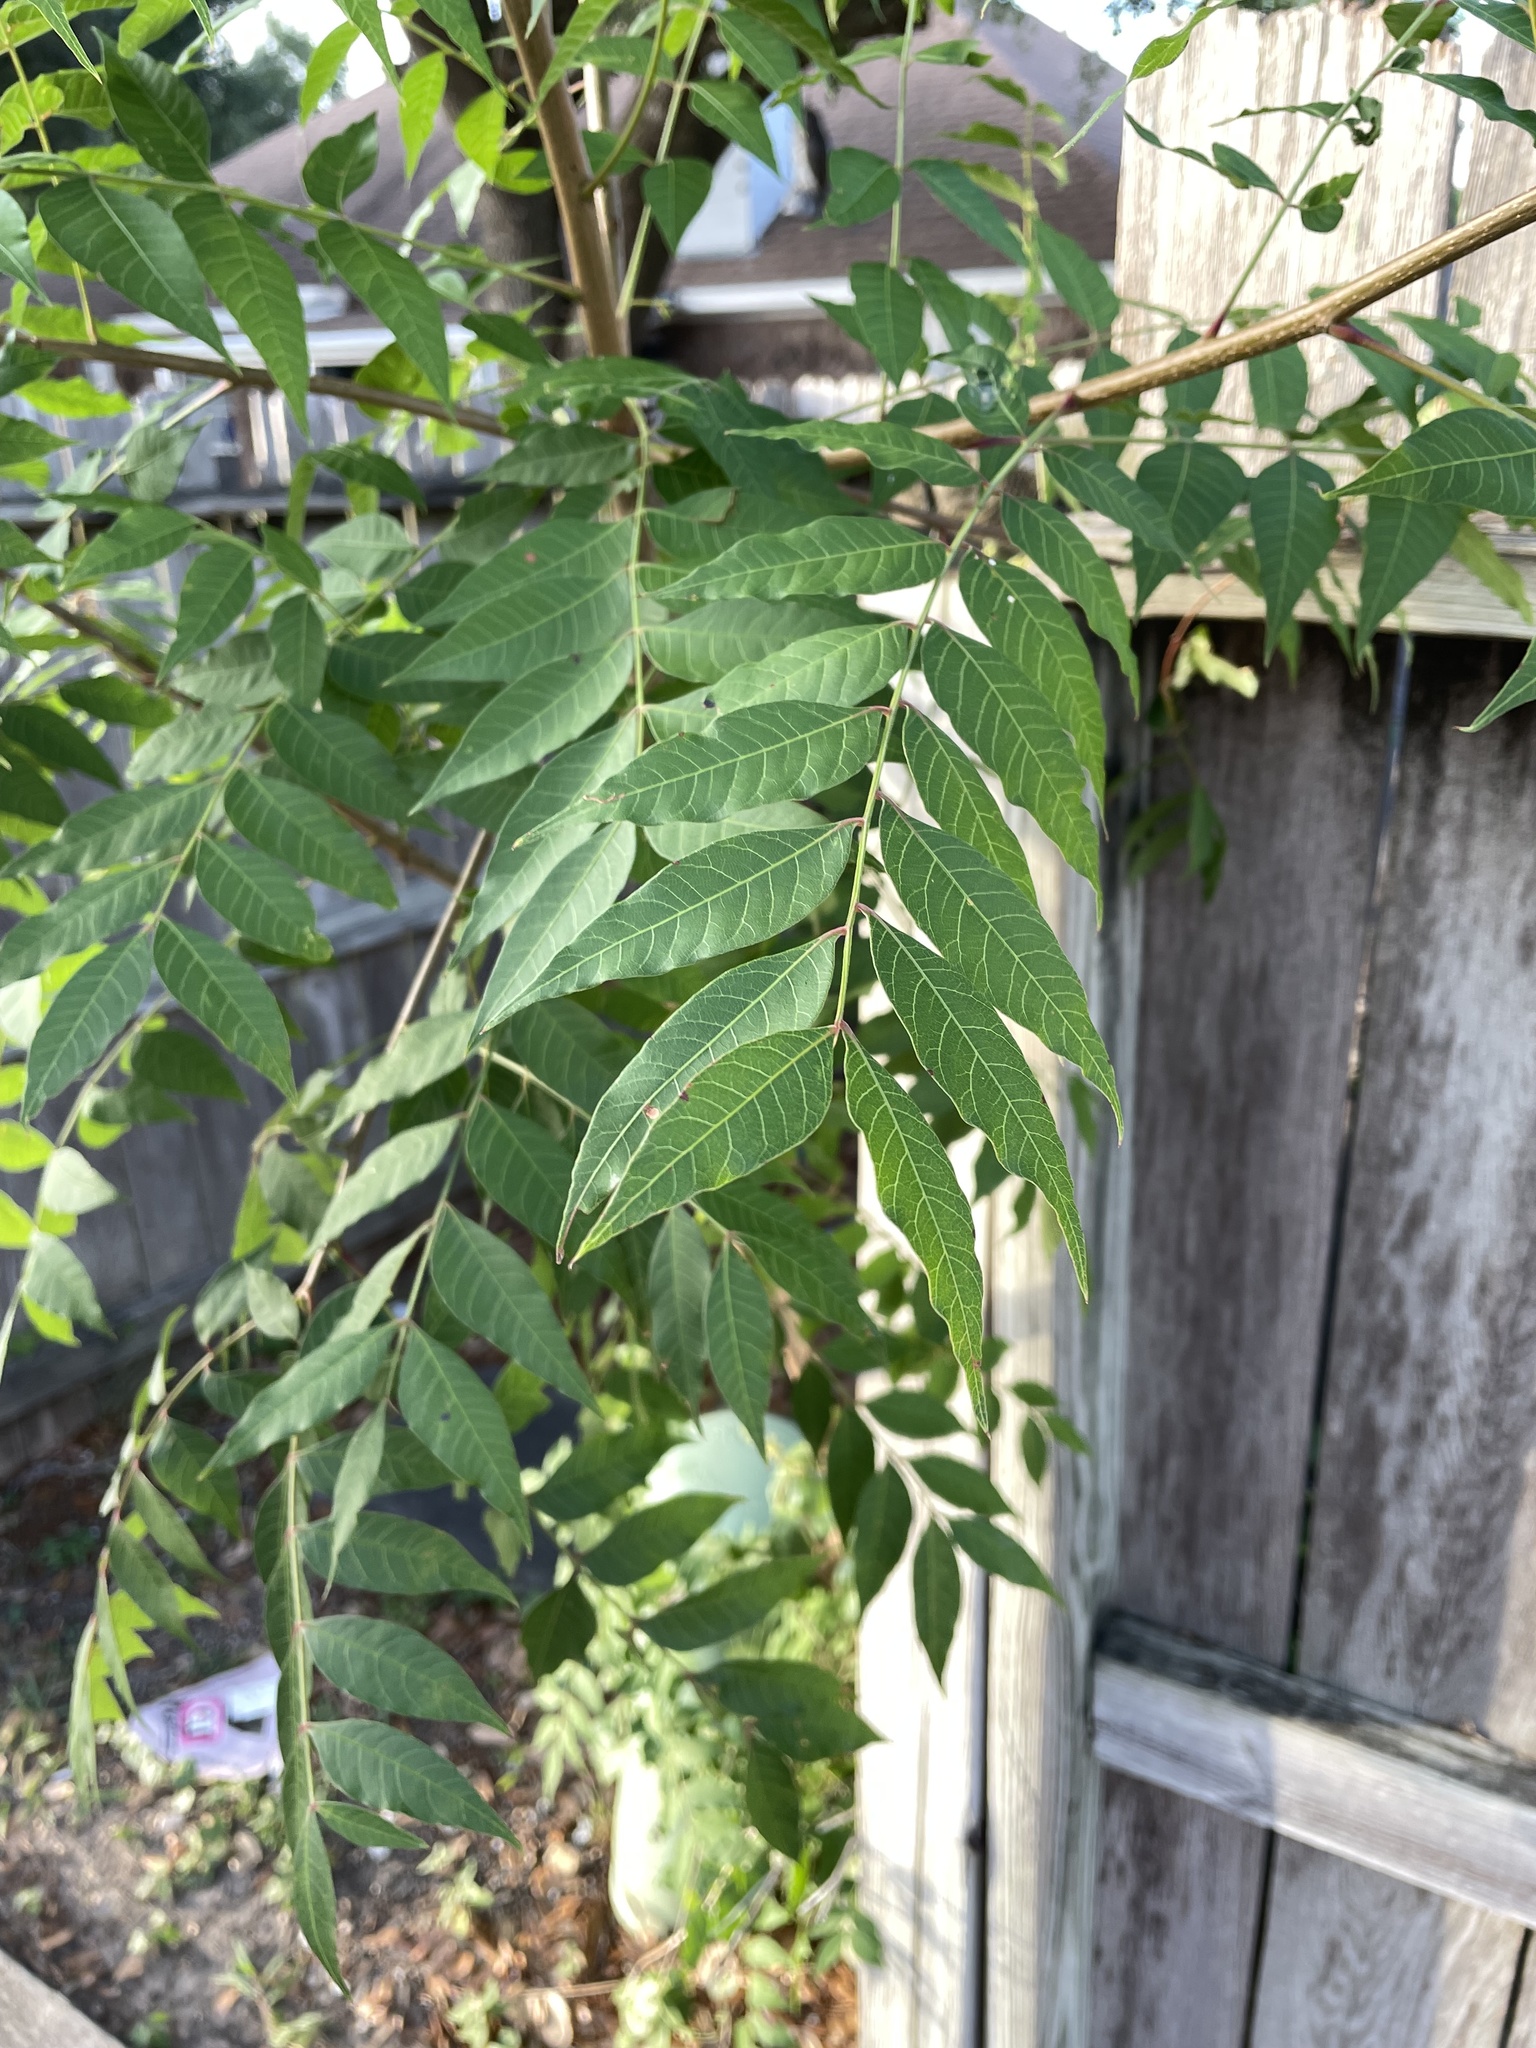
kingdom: Plantae
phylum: Tracheophyta
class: Magnoliopsida
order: Sapindales
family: Anacardiaceae
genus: Pistacia
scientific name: Pistacia chinensis
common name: Chinese pistache
